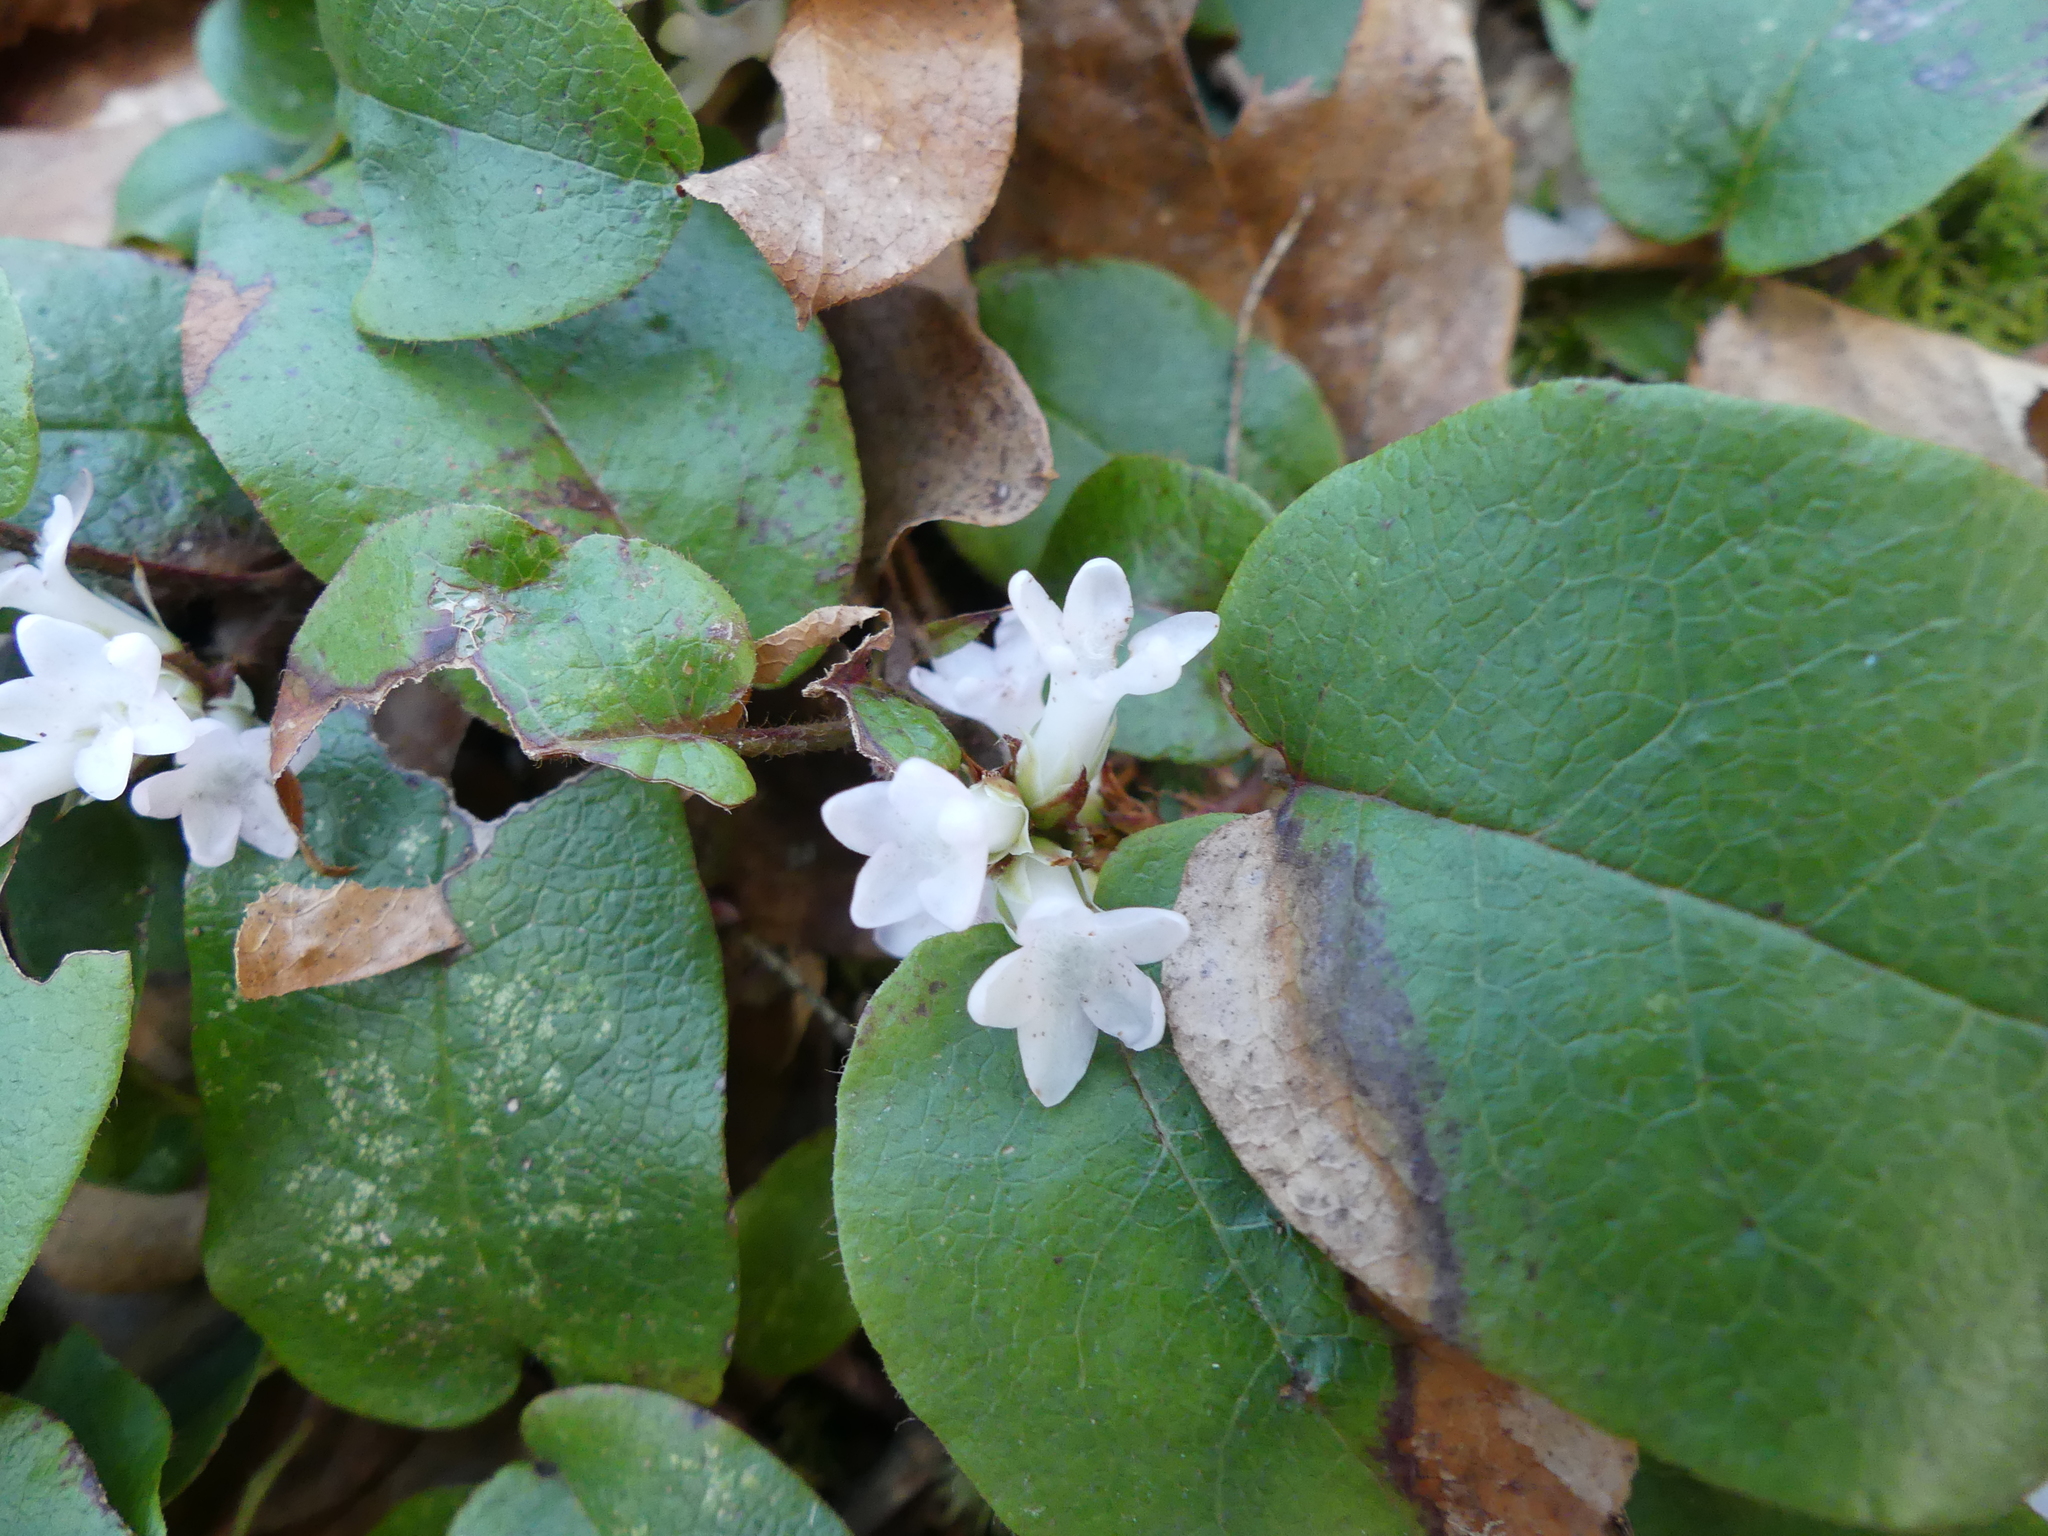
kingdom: Plantae
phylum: Tracheophyta
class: Magnoliopsida
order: Ericales
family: Ericaceae
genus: Epigaea
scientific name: Epigaea repens
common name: Gravelroot
